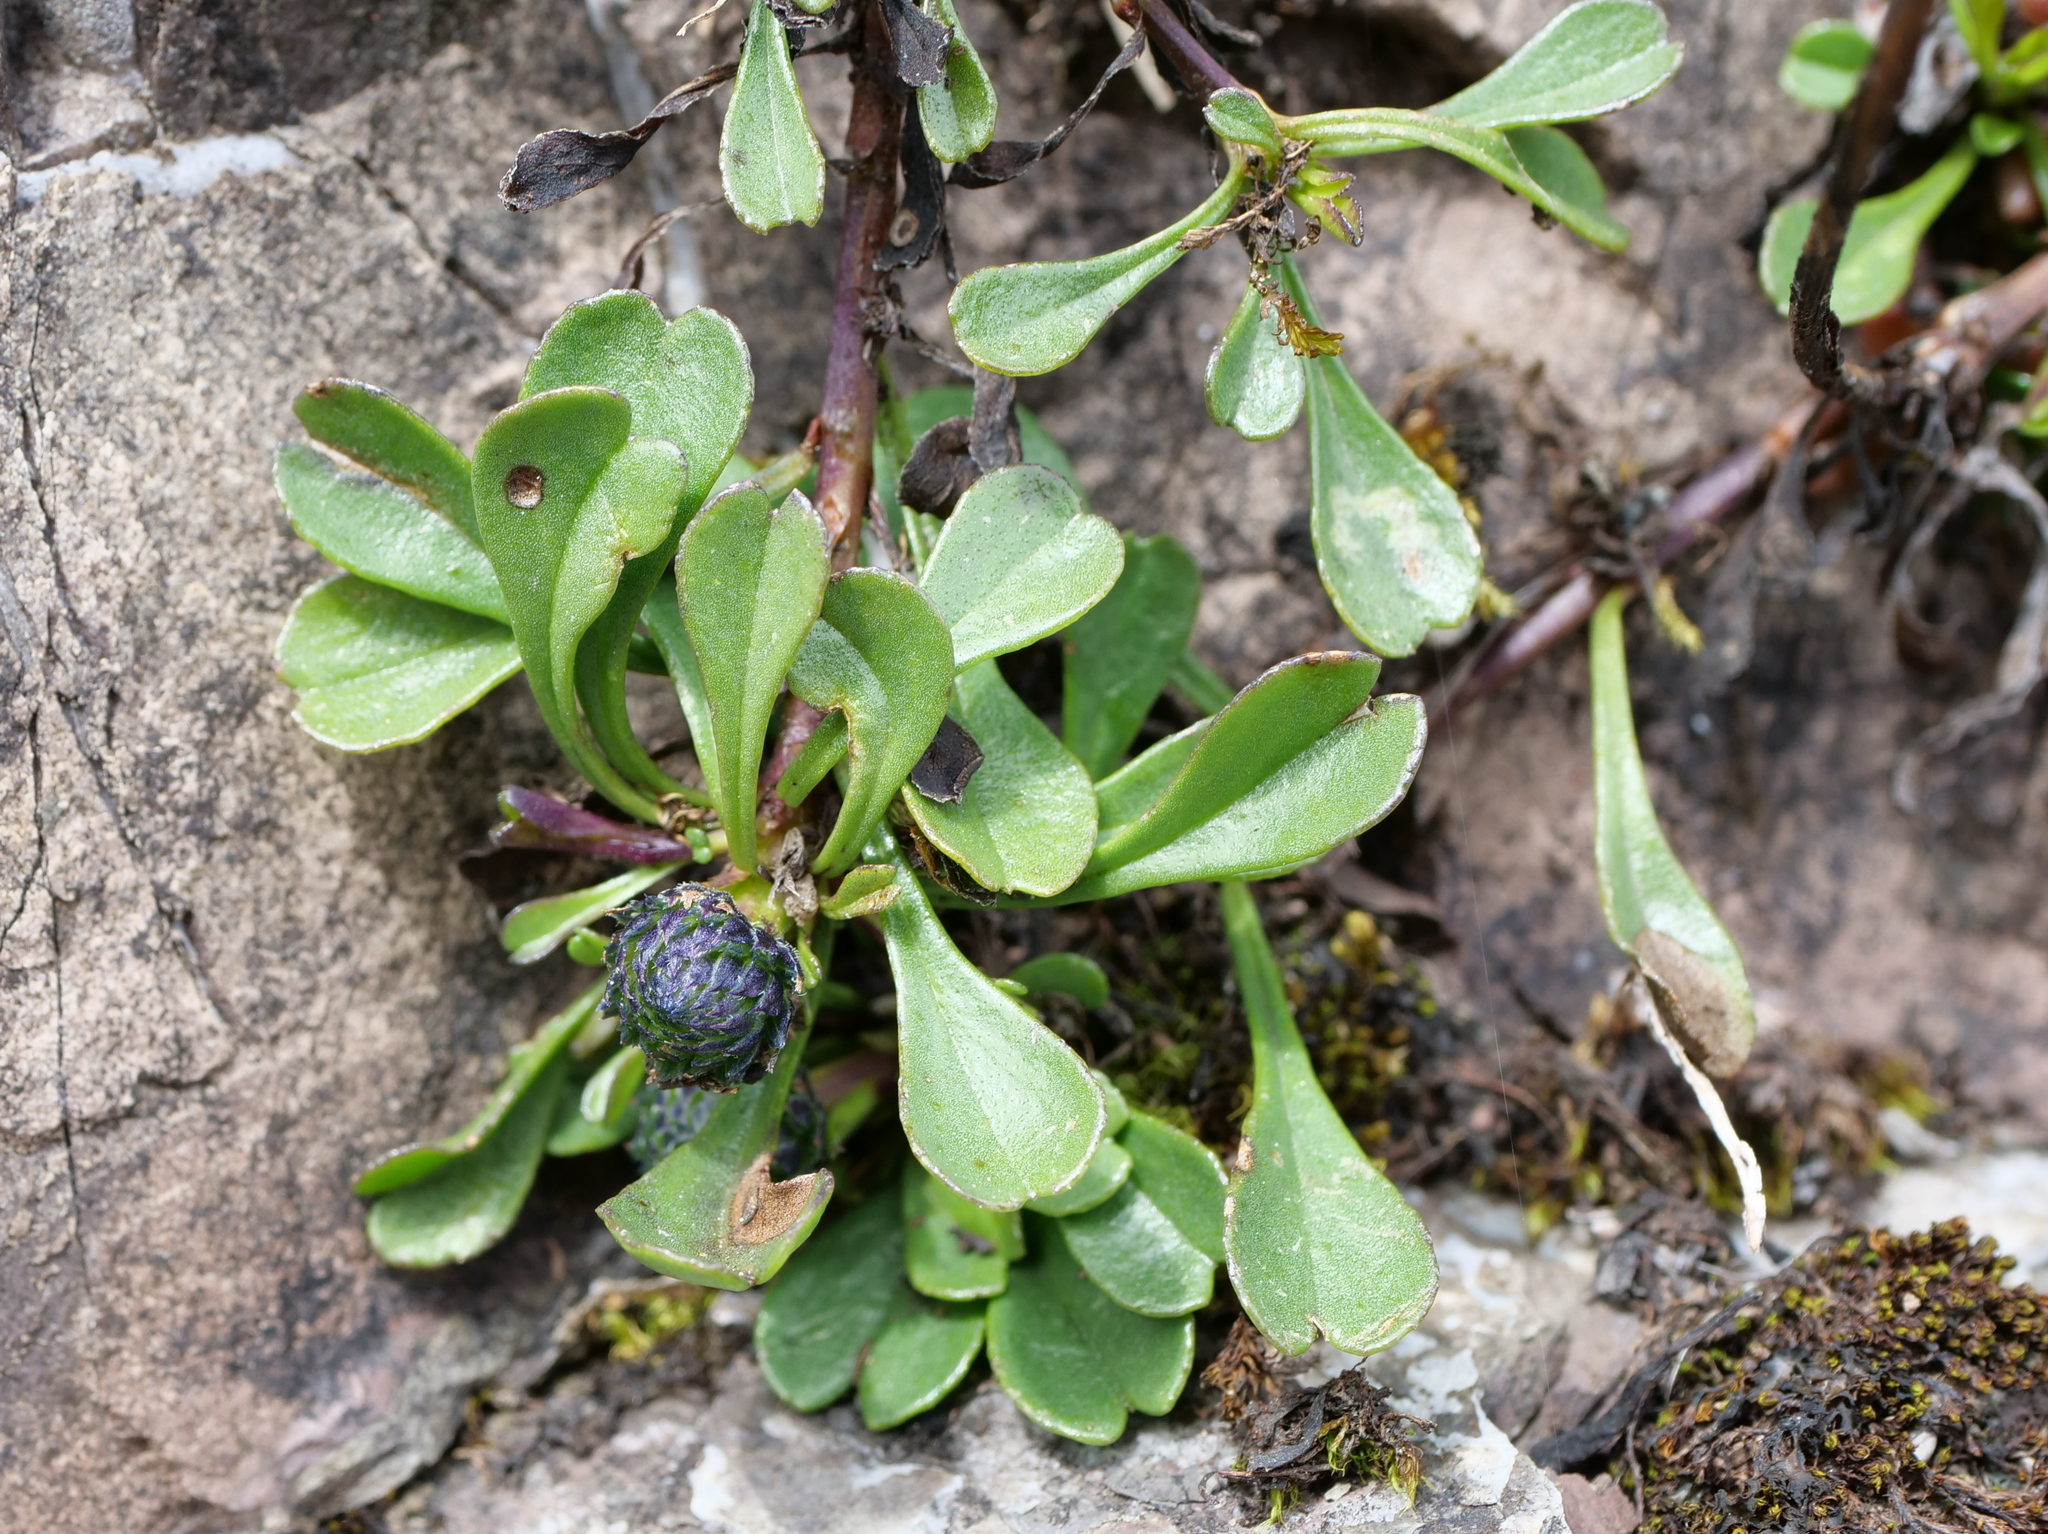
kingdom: Plantae
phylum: Tracheophyta
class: Magnoliopsida
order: Lamiales
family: Plantaginaceae
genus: Globularia
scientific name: Globularia cordifolia
